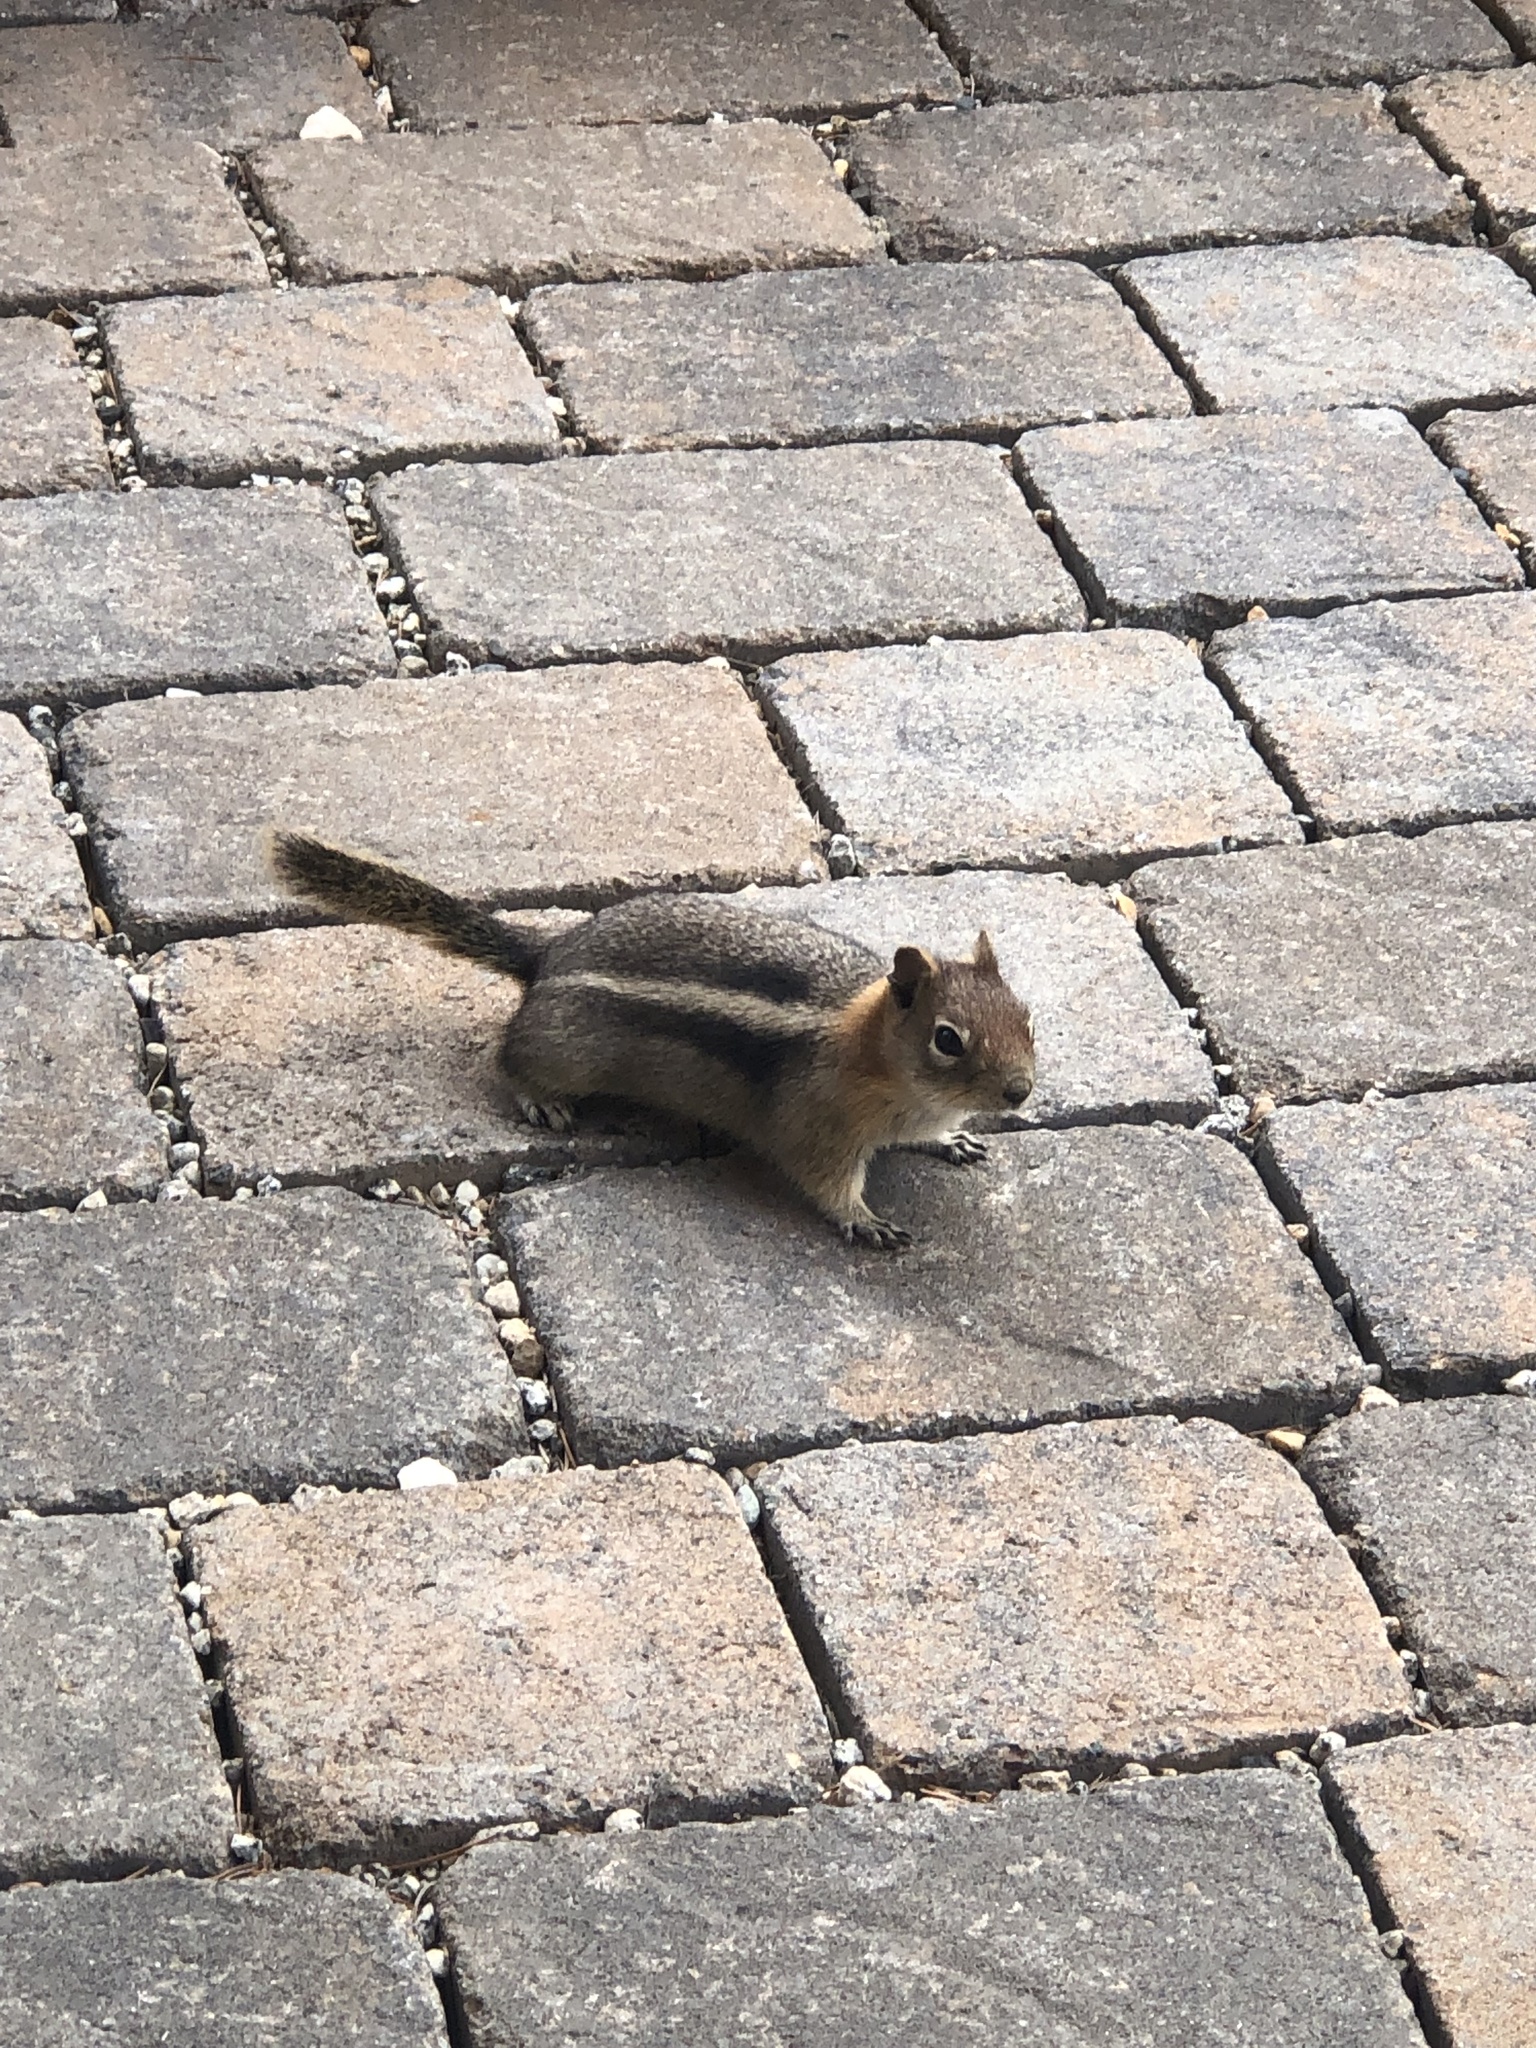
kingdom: Animalia
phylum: Chordata
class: Mammalia
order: Rodentia
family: Sciuridae
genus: Callospermophilus
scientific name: Callospermophilus lateralis
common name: Golden-mantled ground squirrel
